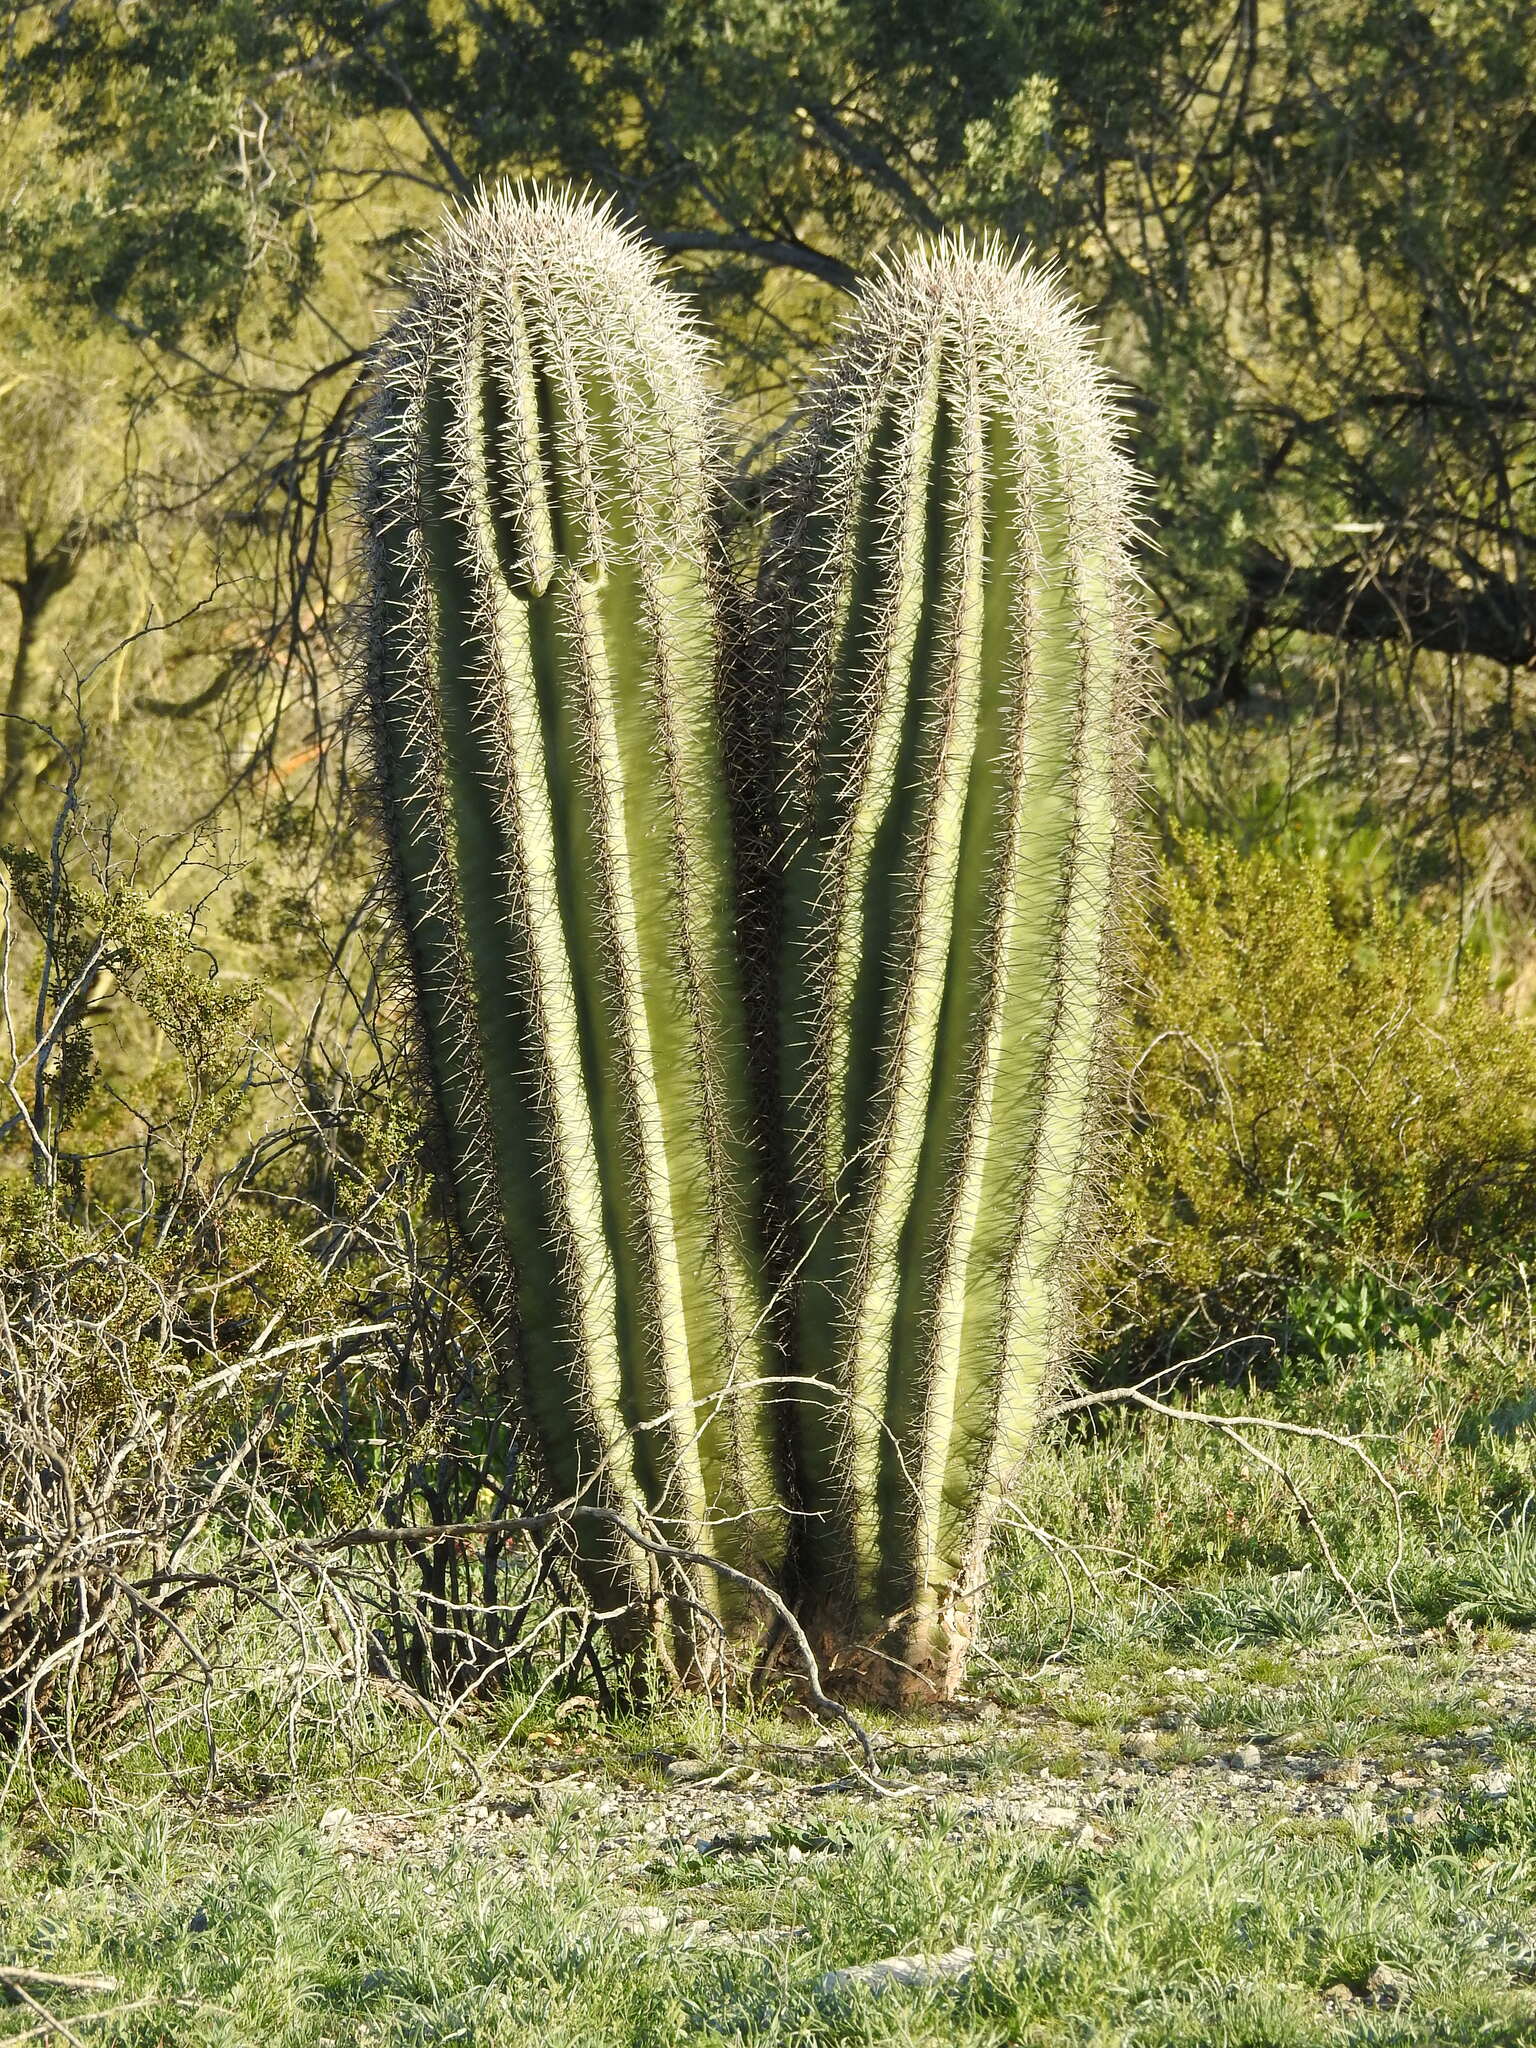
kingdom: Plantae
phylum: Tracheophyta
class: Magnoliopsida
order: Caryophyllales
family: Cactaceae
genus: Carnegiea
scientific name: Carnegiea gigantea
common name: Saguaro
